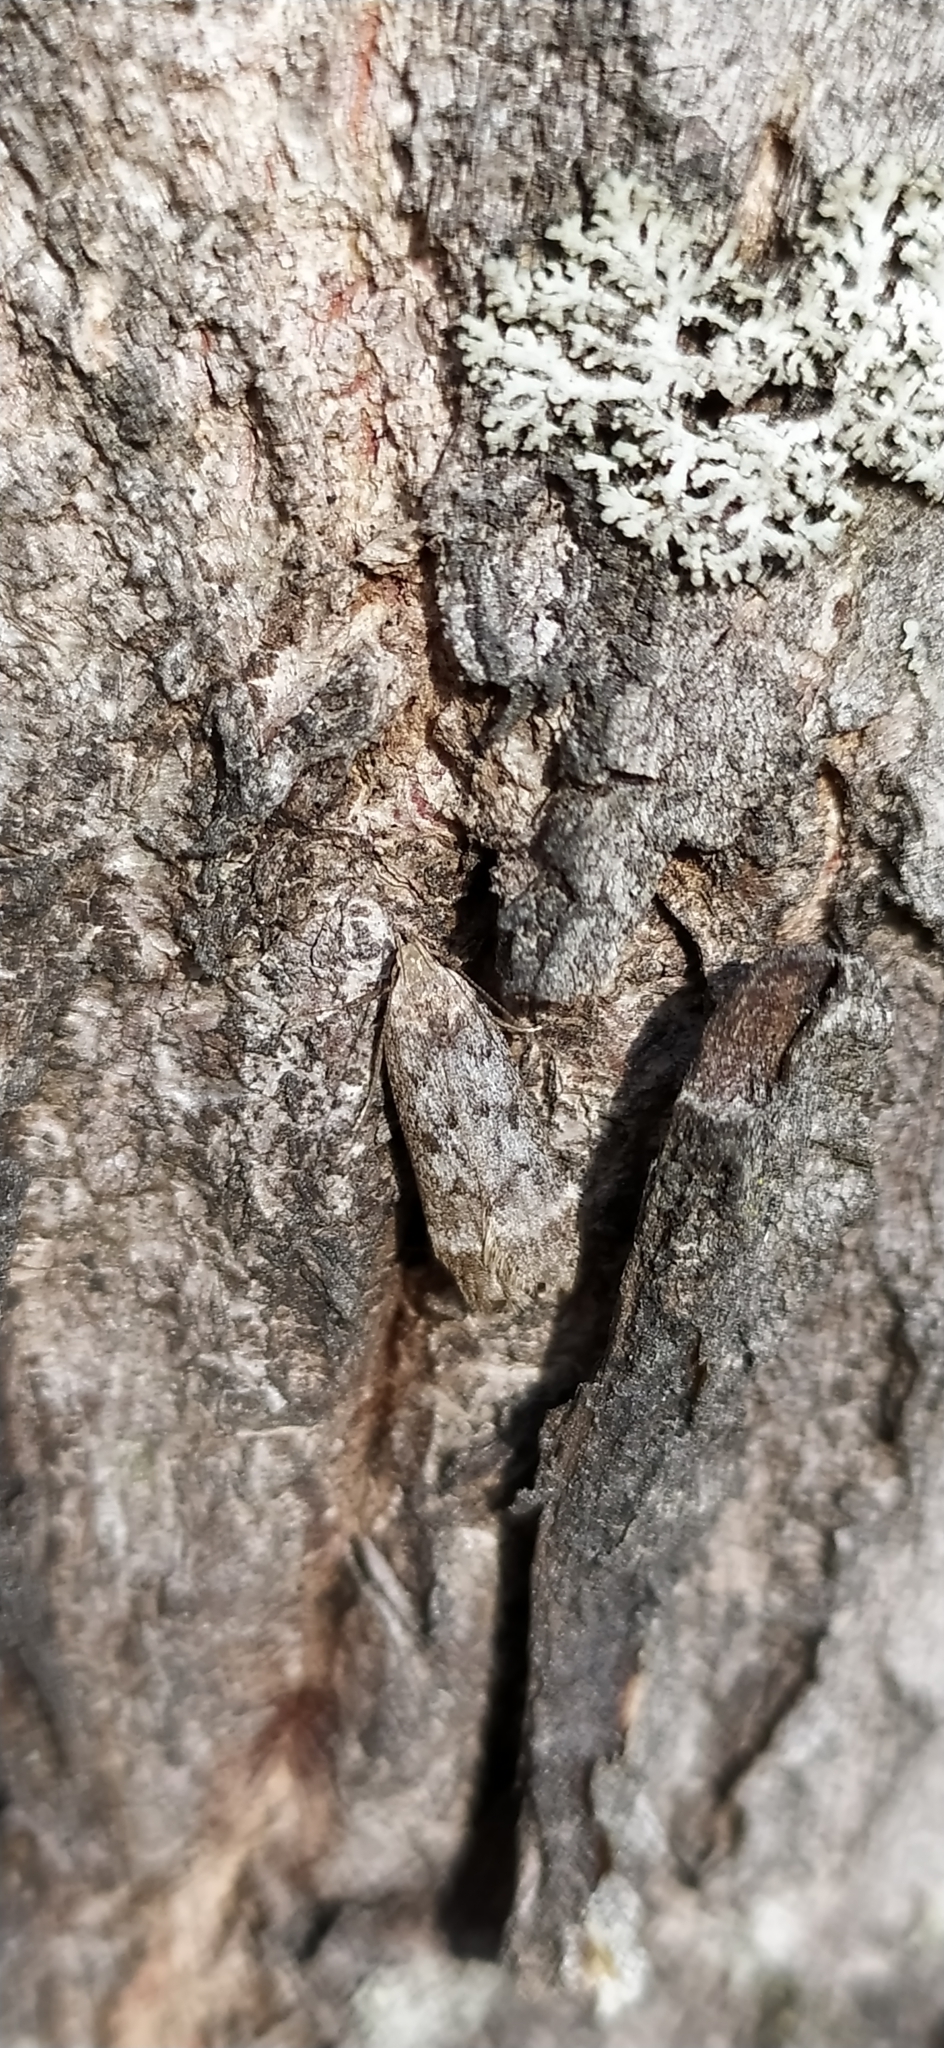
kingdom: Animalia
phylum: Arthropoda
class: Insecta
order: Lepidoptera
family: Gelechiidae
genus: Anacampsis
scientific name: Anacampsis blattariella
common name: Birch sober
